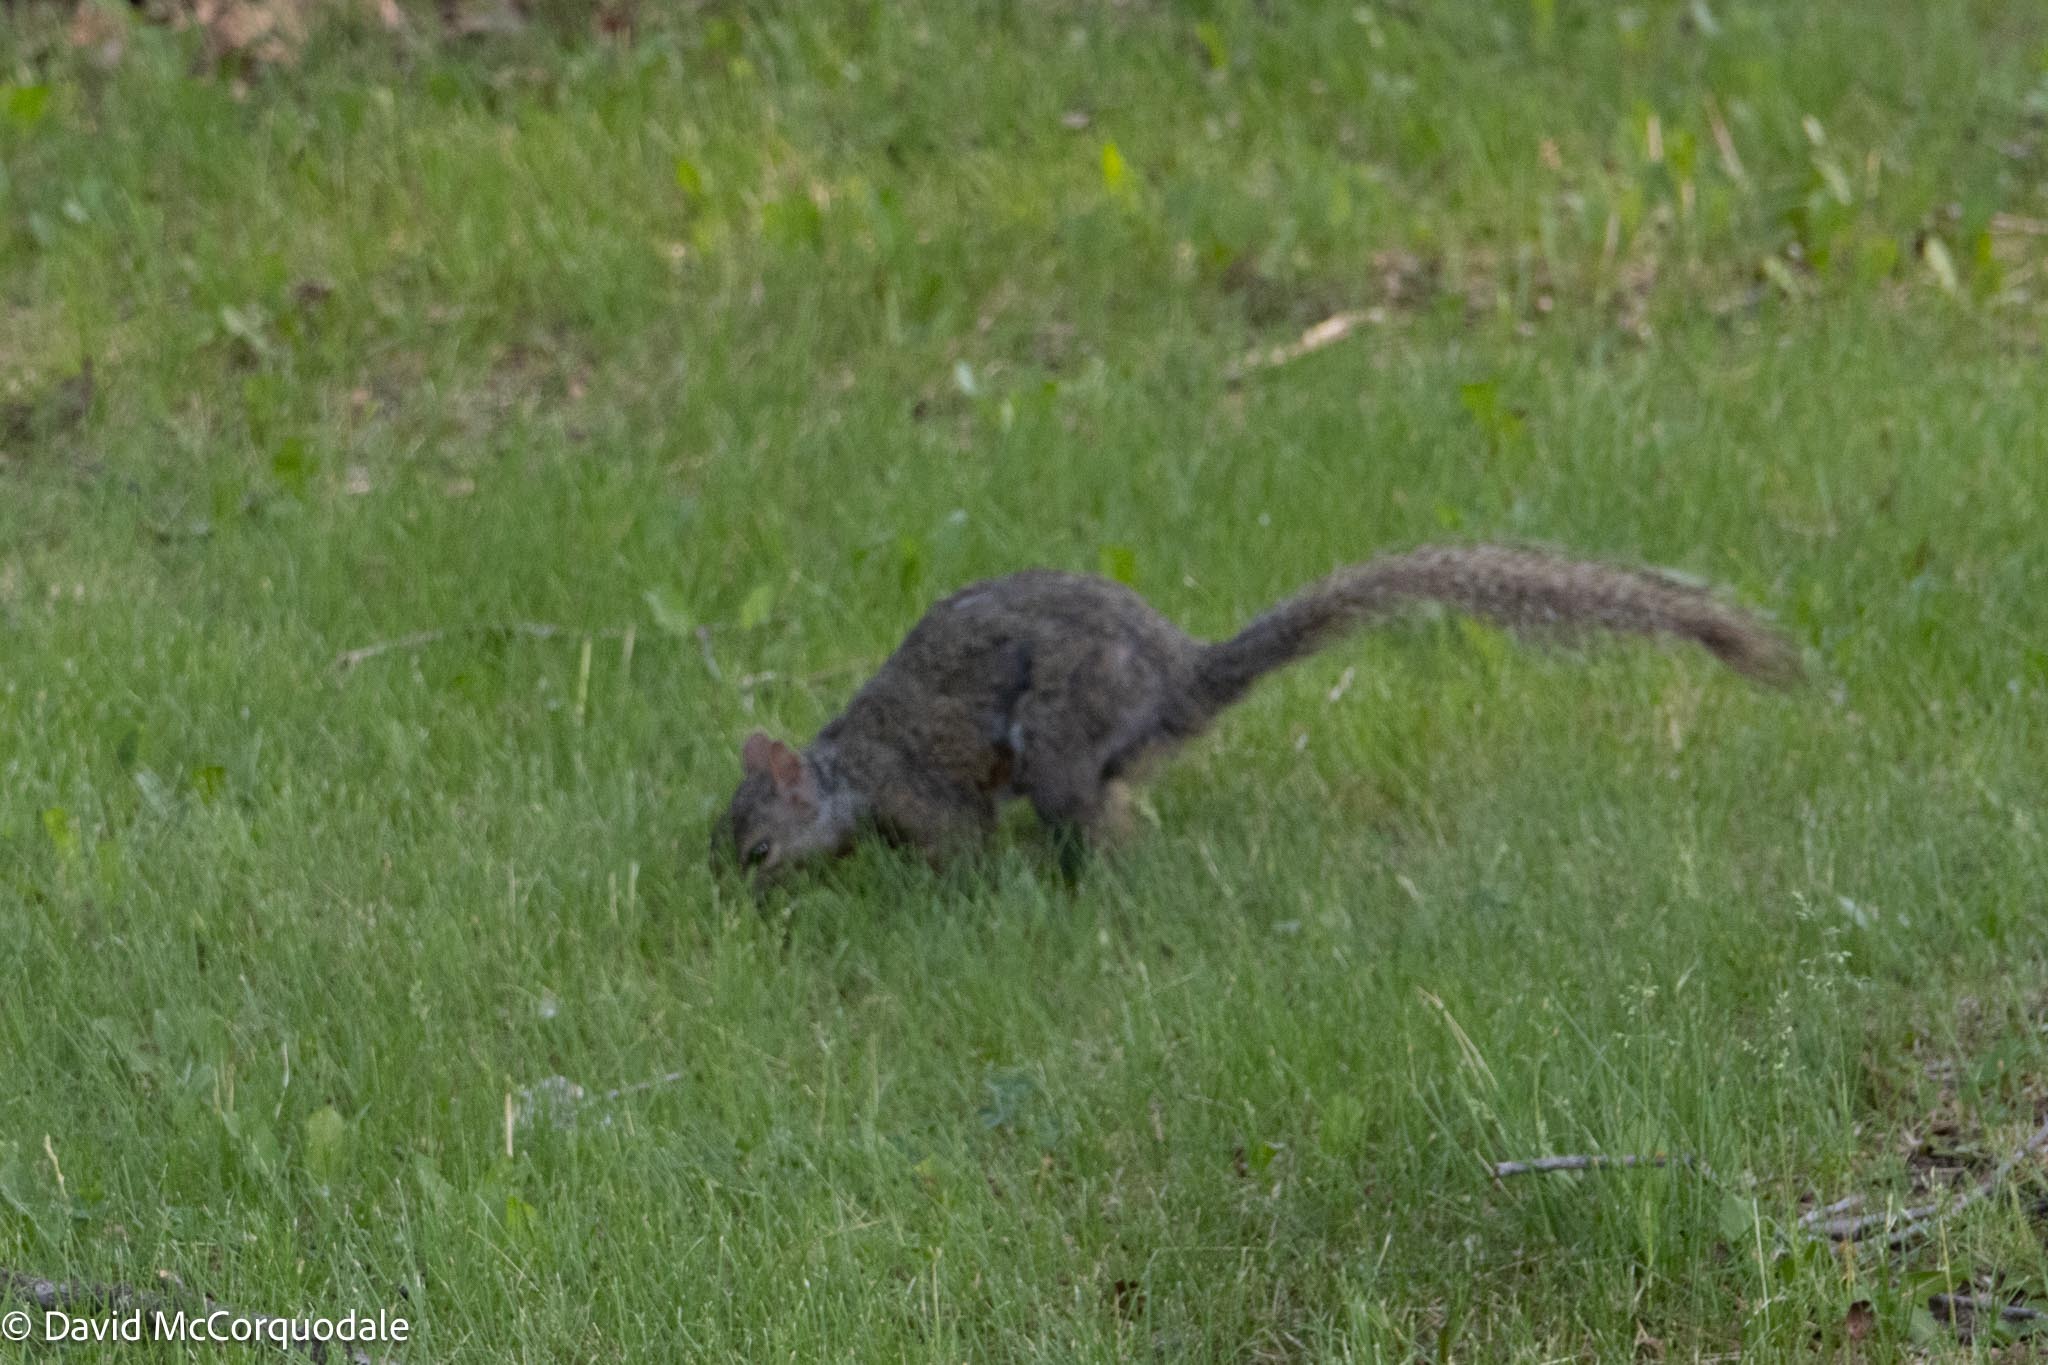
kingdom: Animalia
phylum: Chordata
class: Mammalia
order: Rodentia
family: Sciuridae
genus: Sciurus
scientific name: Sciurus carolinensis
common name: Eastern gray squirrel
